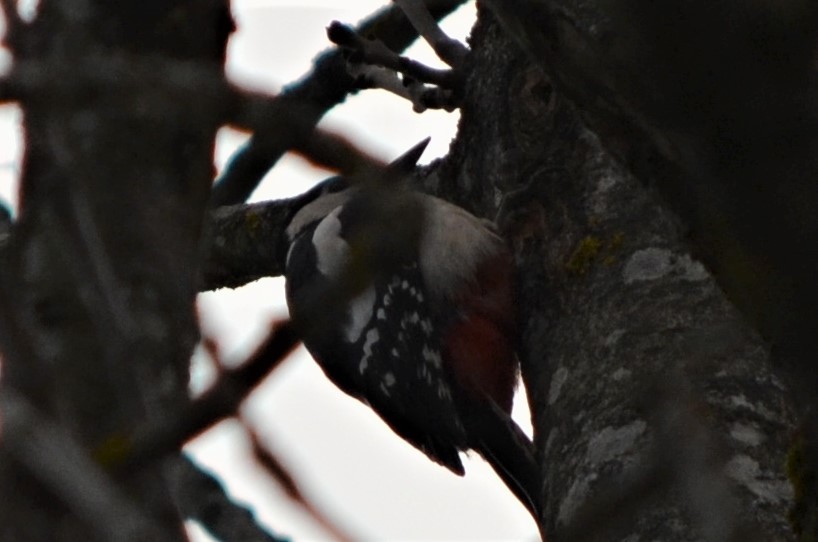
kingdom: Animalia
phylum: Chordata
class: Aves
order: Piciformes
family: Picidae
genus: Dendrocopos
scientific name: Dendrocopos major
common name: Great spotted woodpecker
